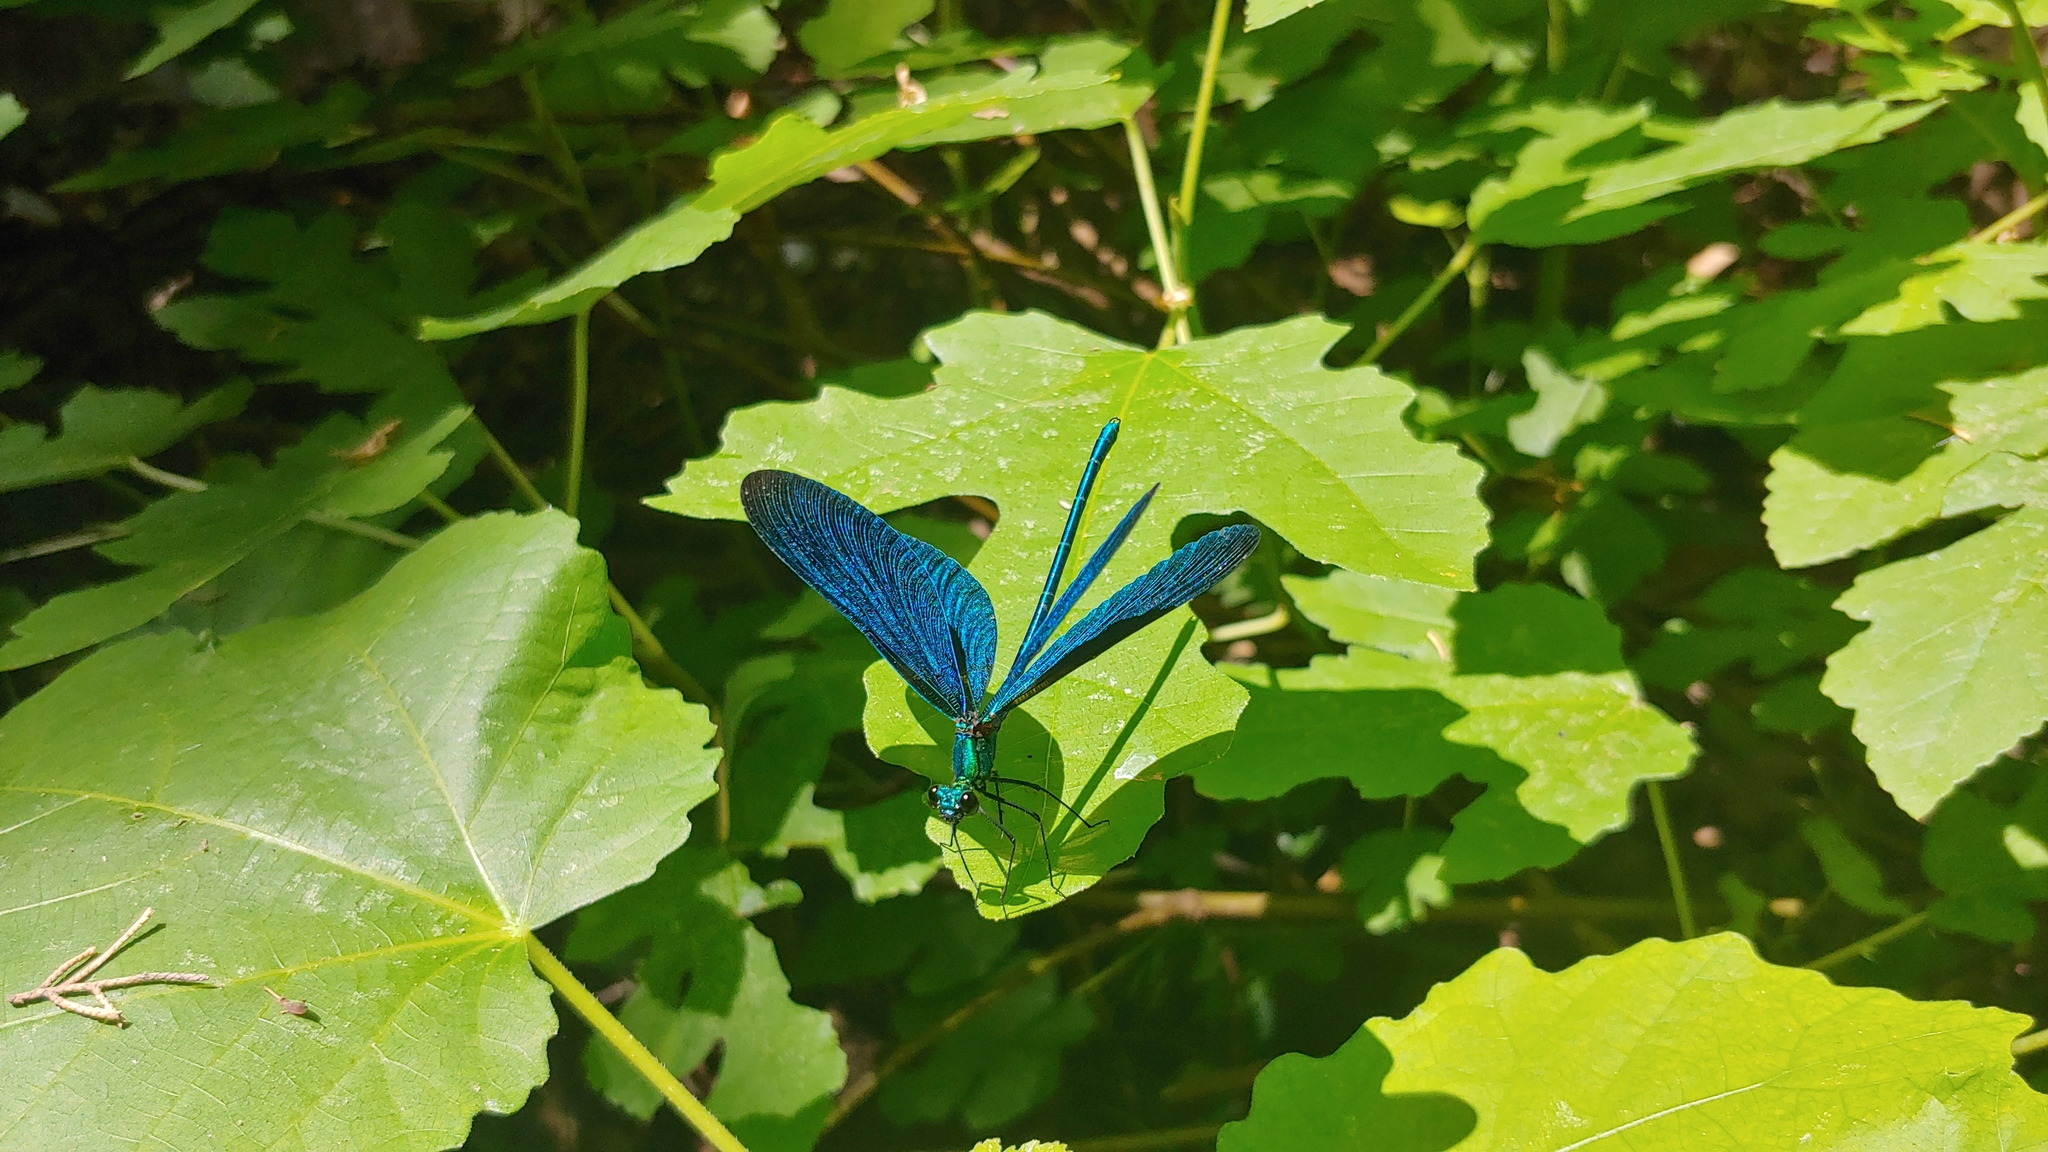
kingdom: Animalia
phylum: Arthropoda
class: Insecta
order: Odonata
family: Calopterygidae
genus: Calopteryx
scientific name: Calopteryx virgo
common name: Beautiful demoiselle
